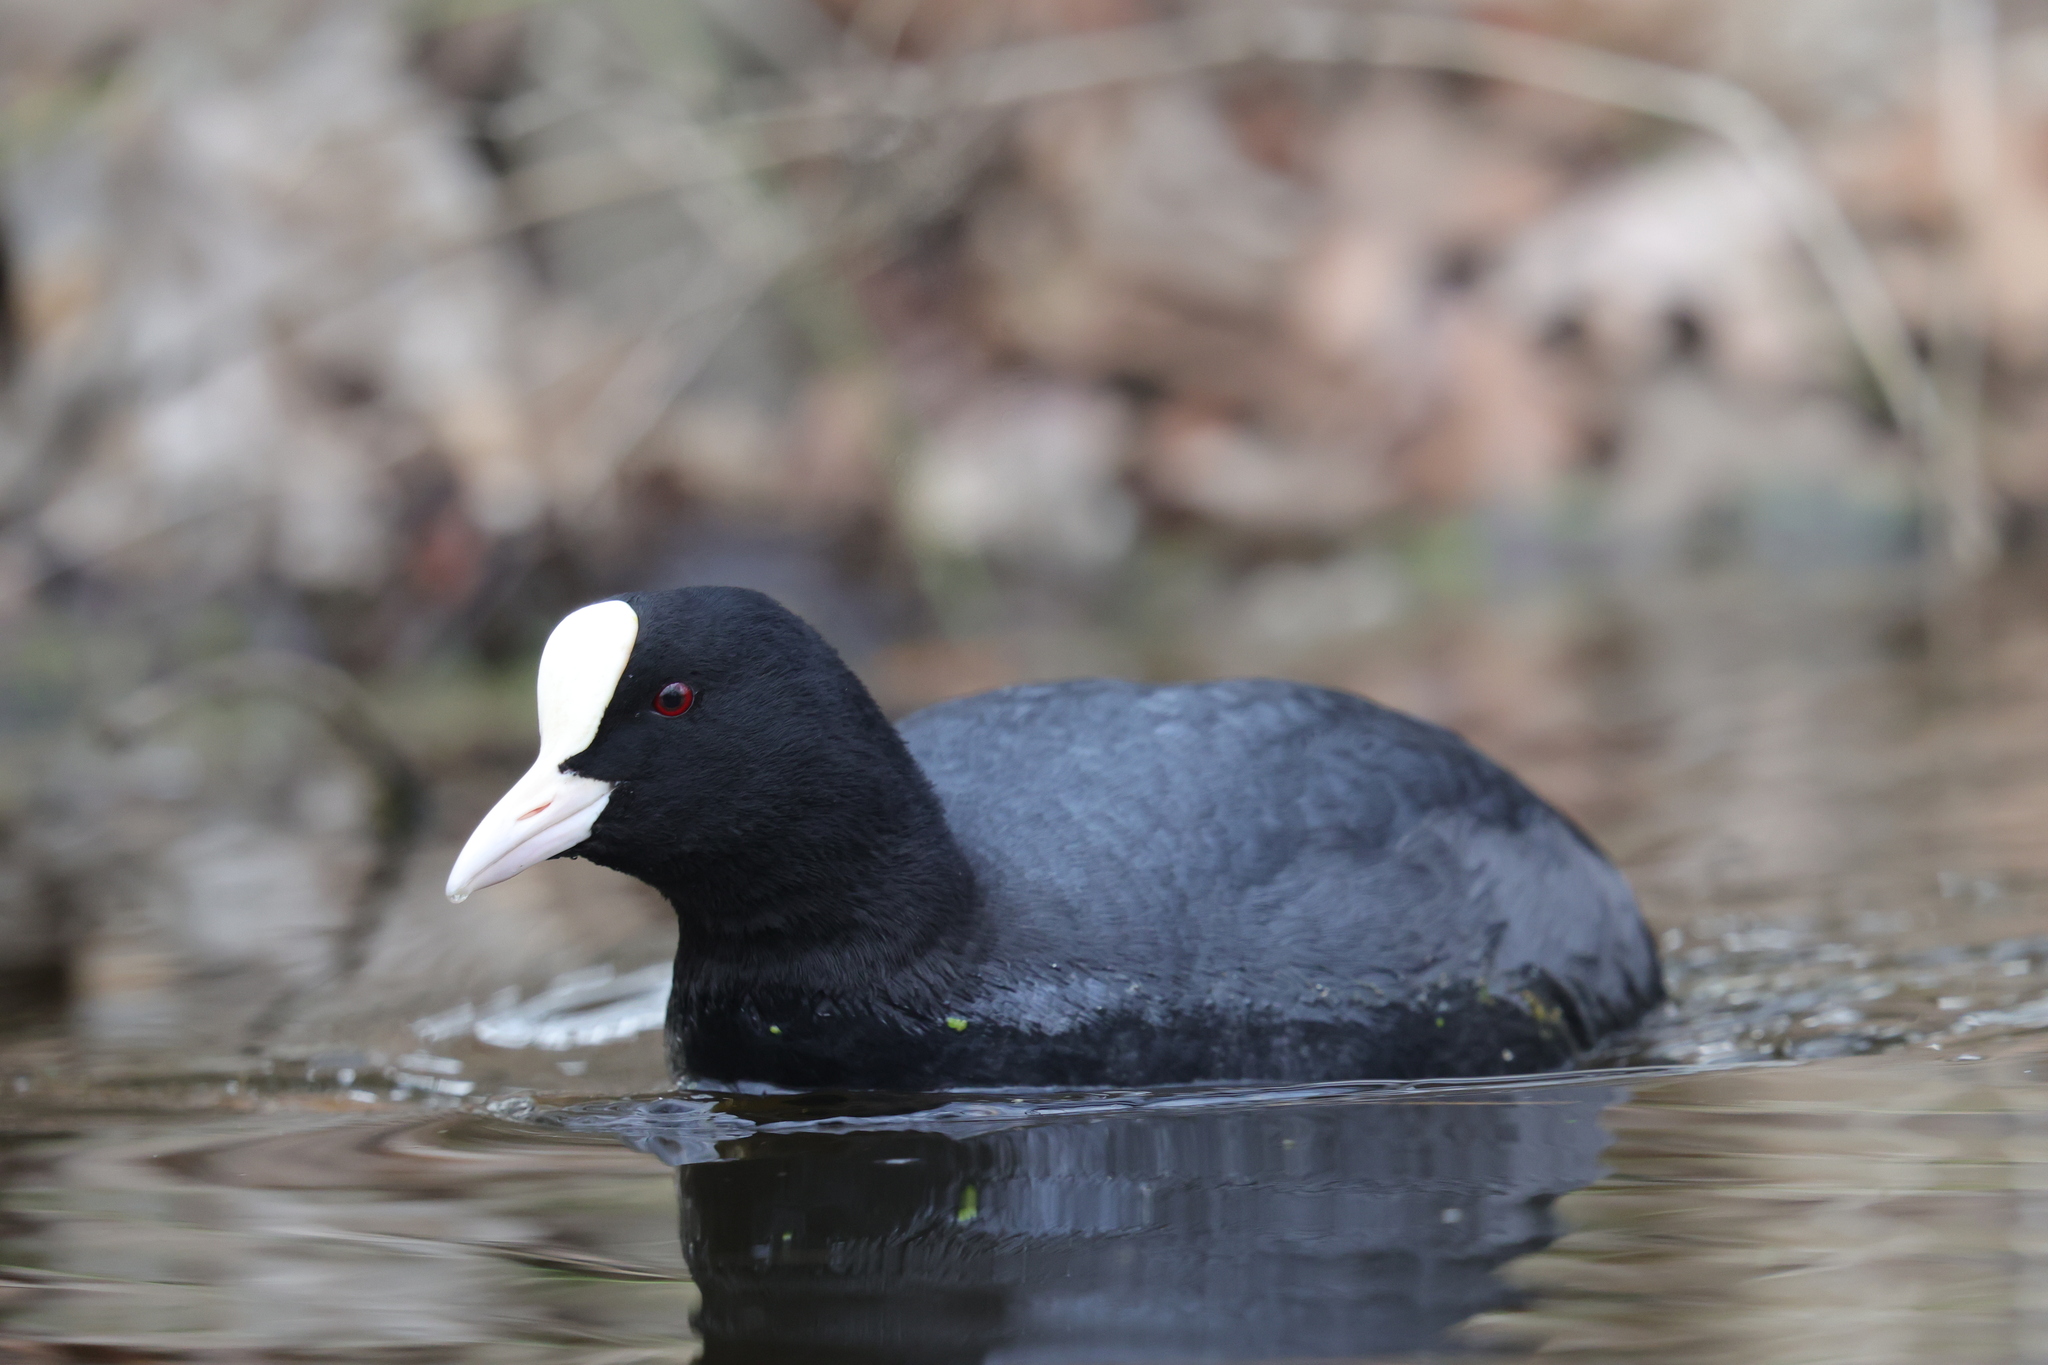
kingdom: Animalia
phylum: Chordata
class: Aves
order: Gruiformes
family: Rallidae
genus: Fulica
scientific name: Fulica atra
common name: Eurasian coot
